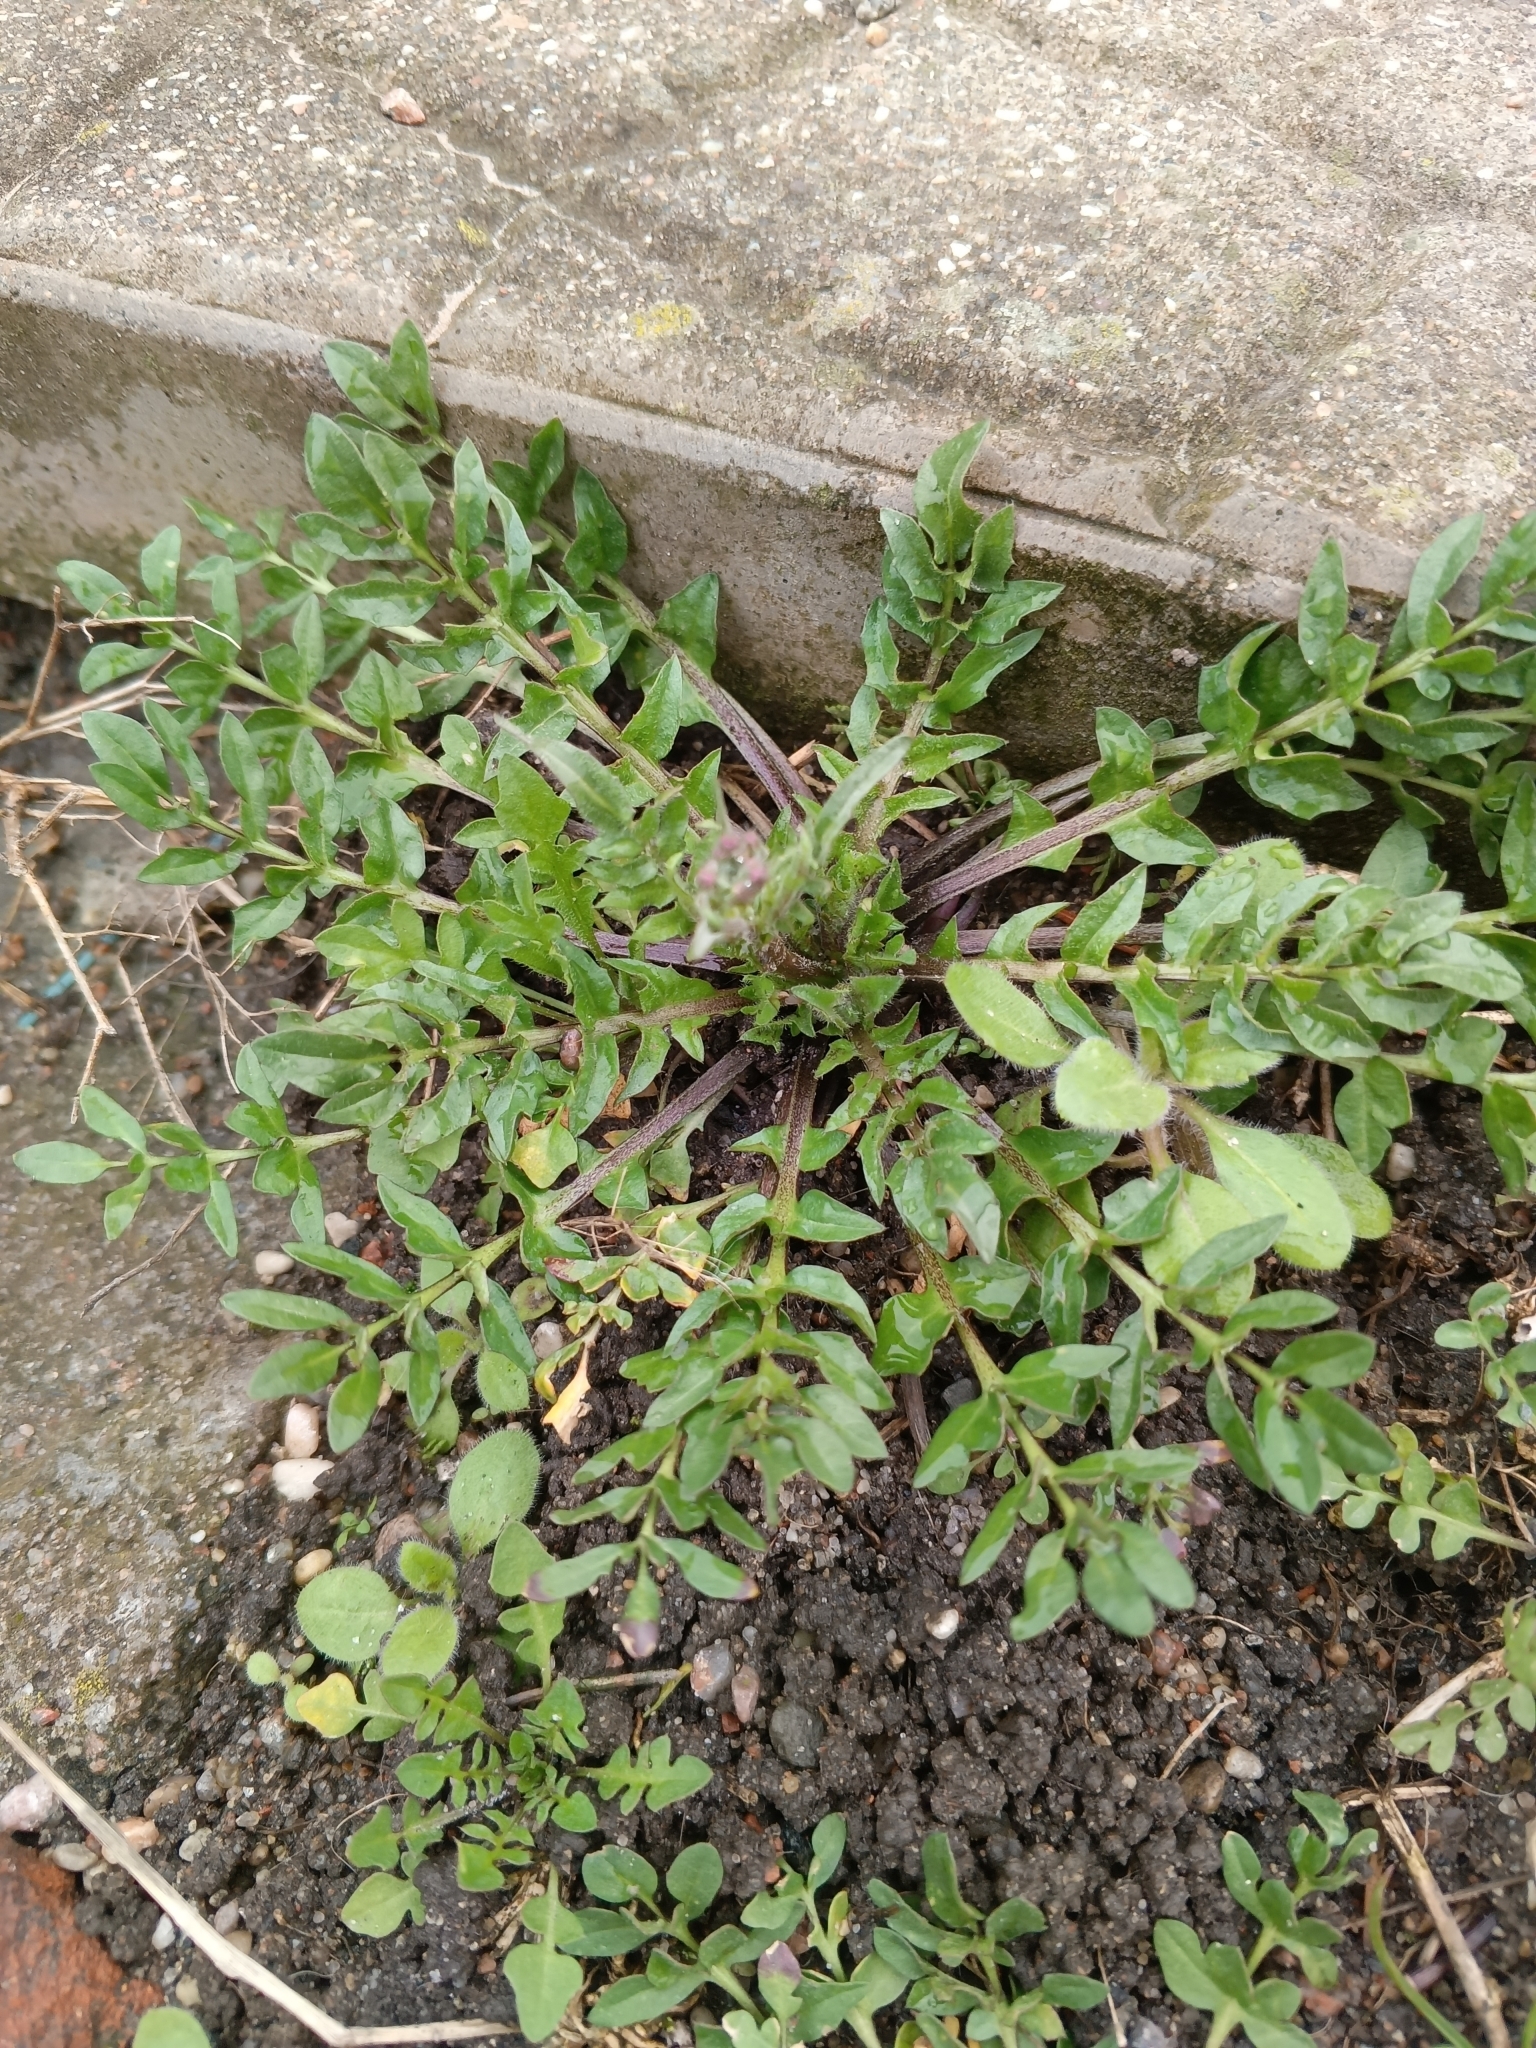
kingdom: Plantae
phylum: Tracheophyta
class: Magnoliopsida
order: Brassicales
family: Brassicaceae
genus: Capsella
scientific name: Capsella bursa-pastoris
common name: Shepherd's purse
